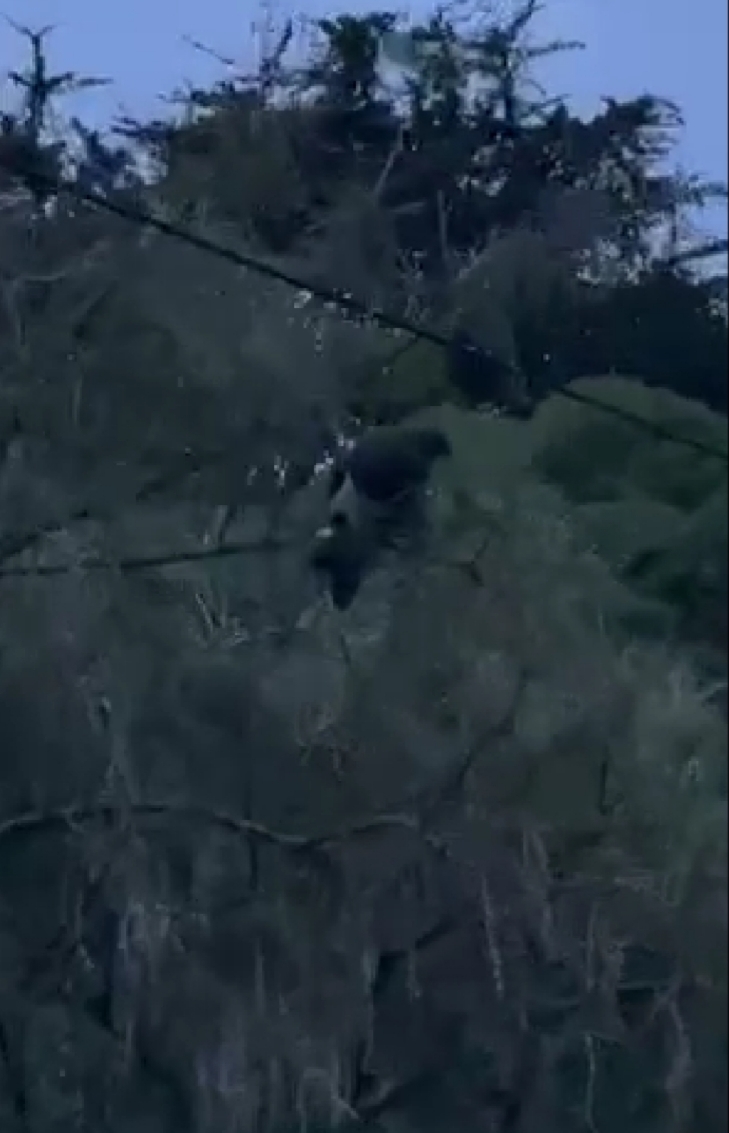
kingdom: Animalia
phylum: Chordata
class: Aves
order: Columbiformes
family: Columbidae
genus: Hemiphaga
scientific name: Hemiphaga novaeseelandiae
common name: New zealand pigeon
